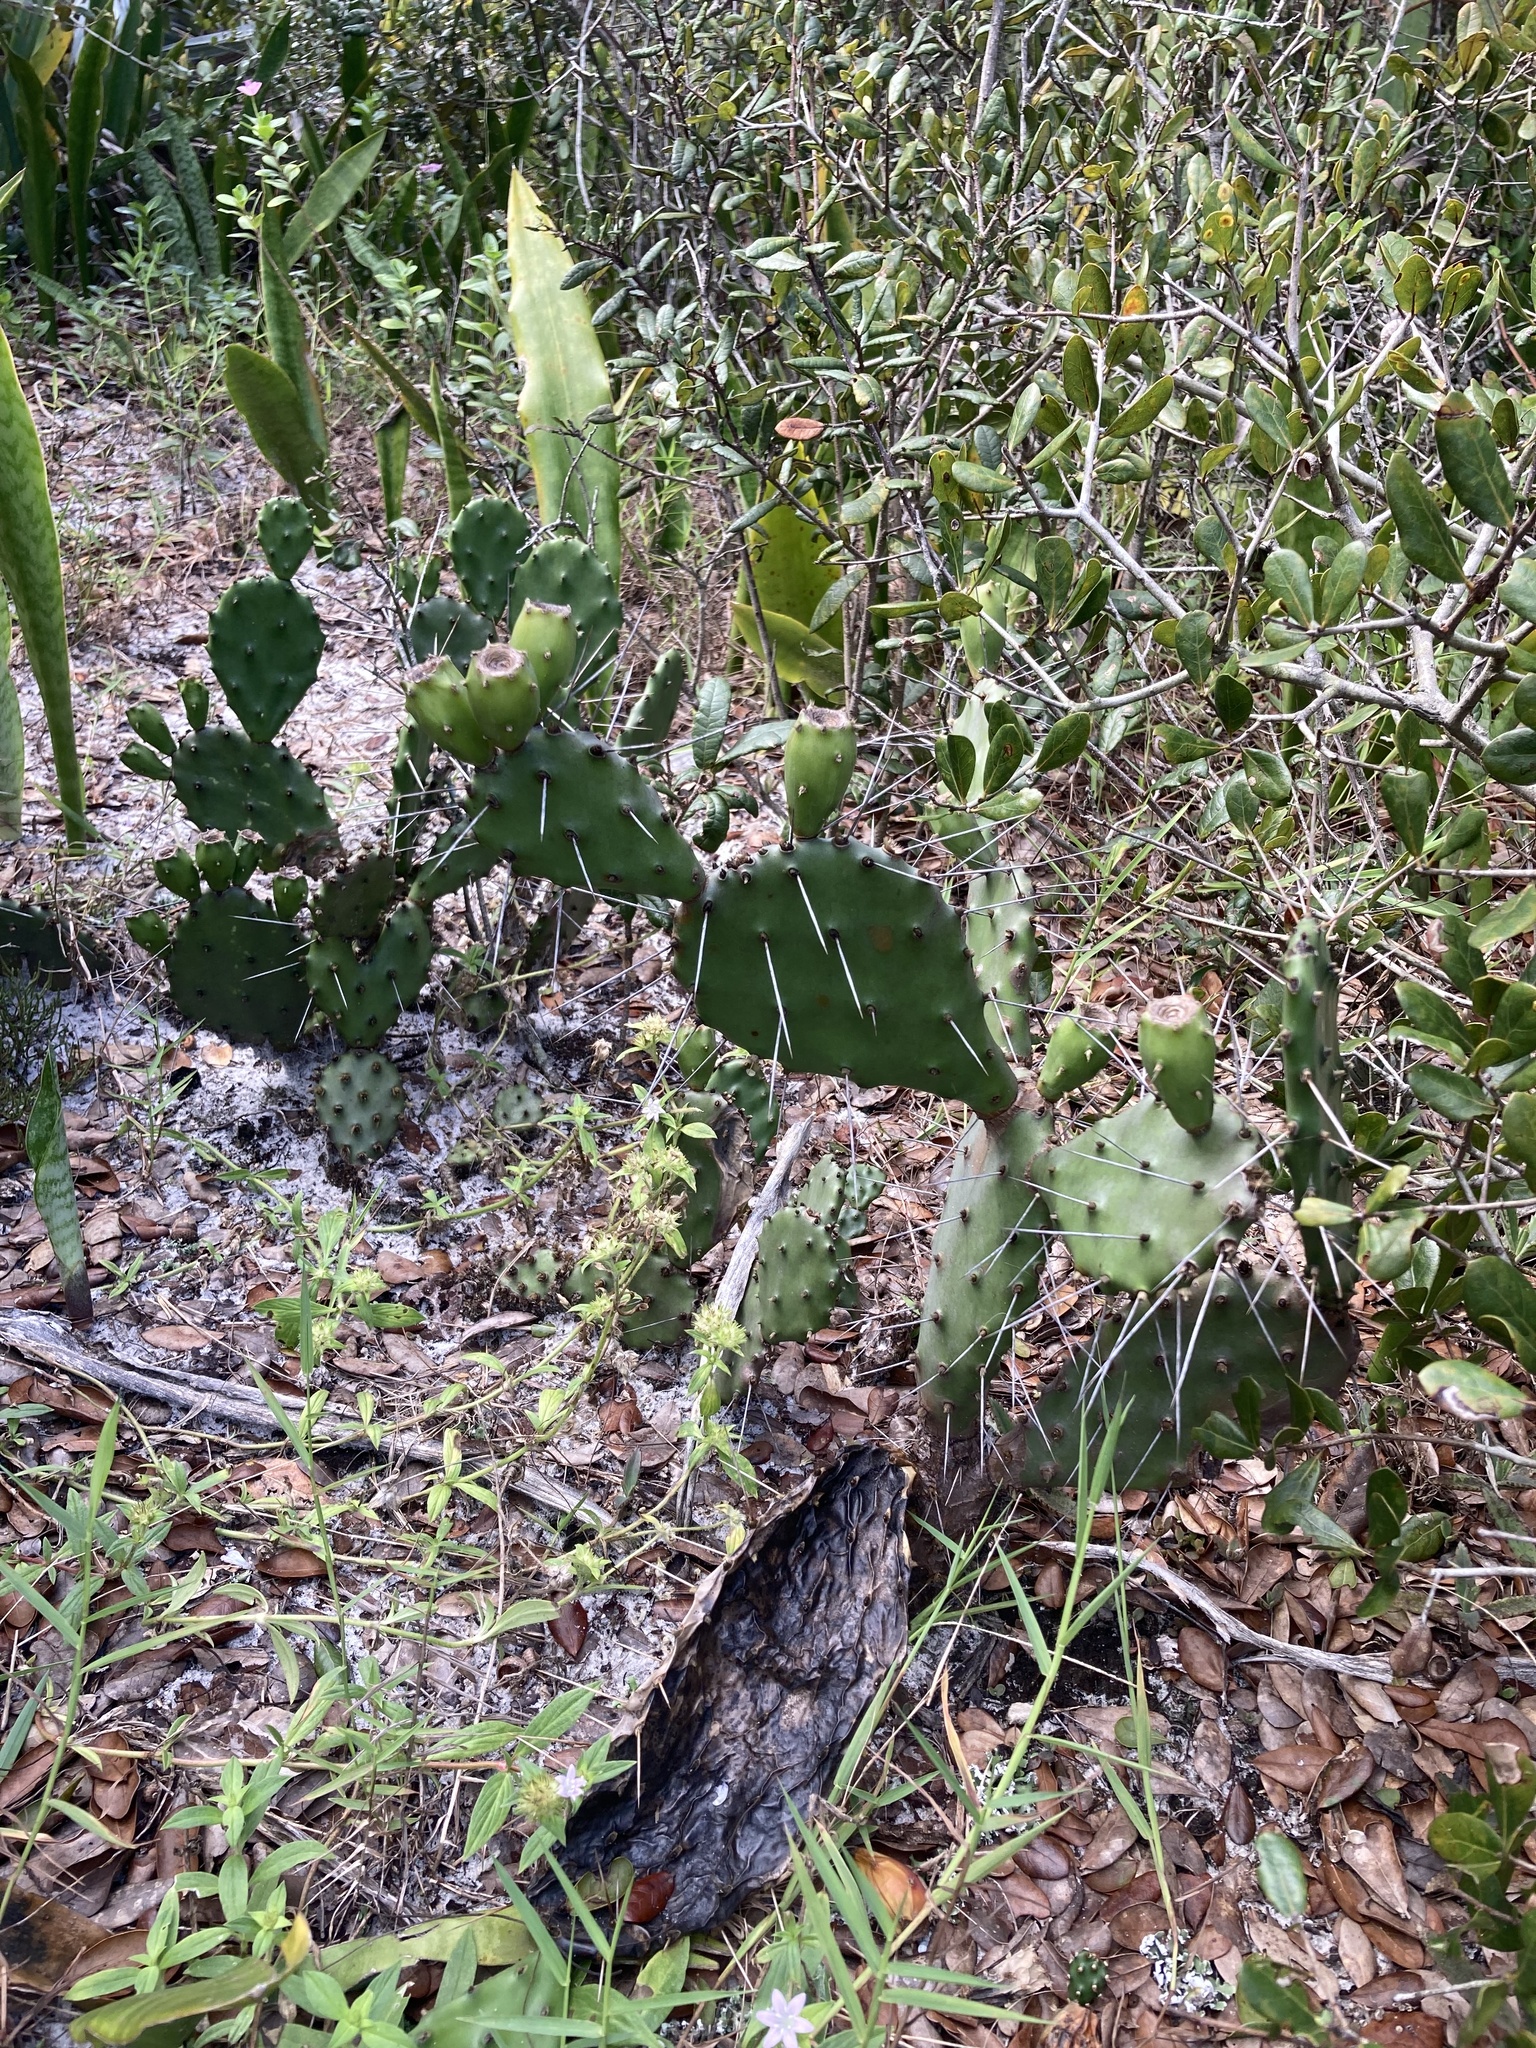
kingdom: Plantae
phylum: Tracheophyta
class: Magnoliopsida
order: Caryophyllales
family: Cactaceae
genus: Opuntia
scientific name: Opuntia austrina
